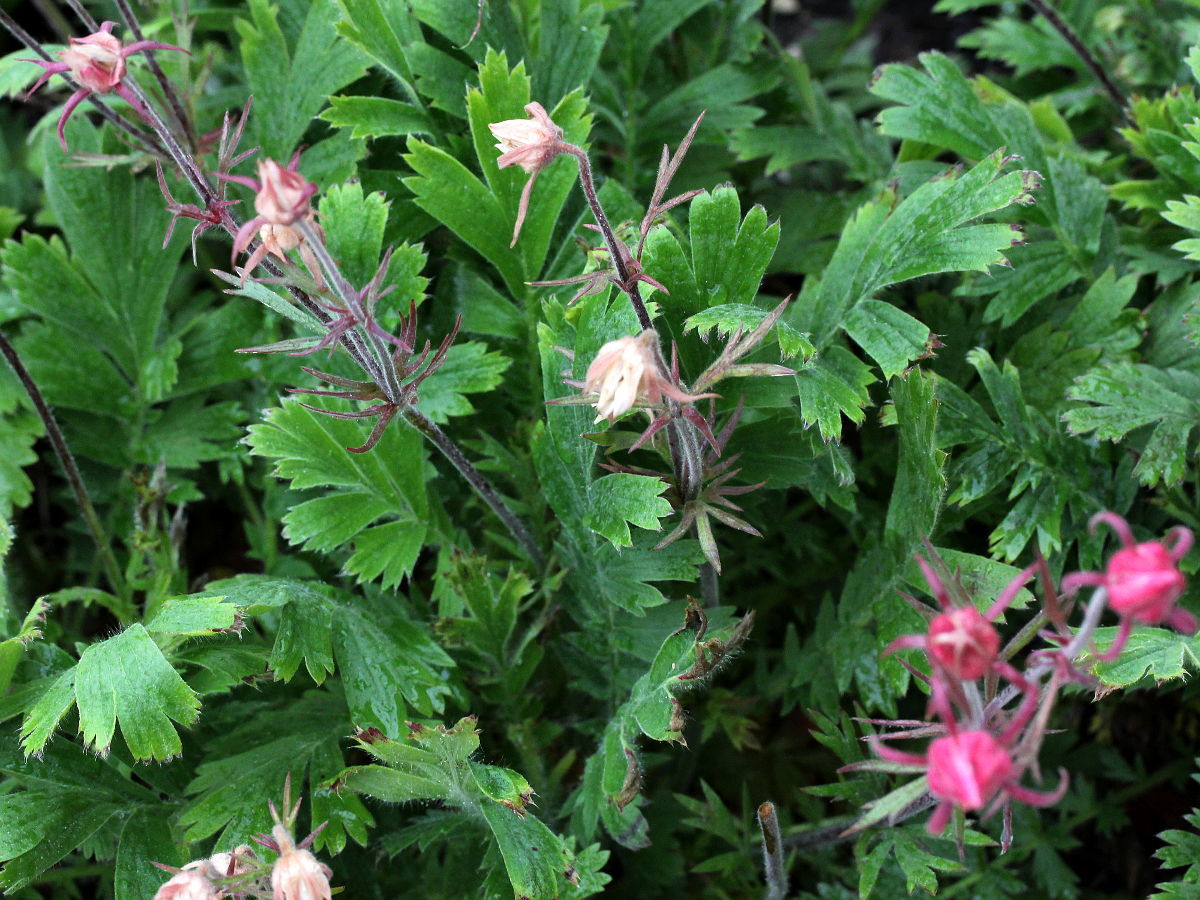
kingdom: Plantae
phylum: Tracheophyta
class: Magnoliopsida
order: Rosales
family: Rosaceae
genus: Geum
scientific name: Geum triflorum
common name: Old man's whiskers
